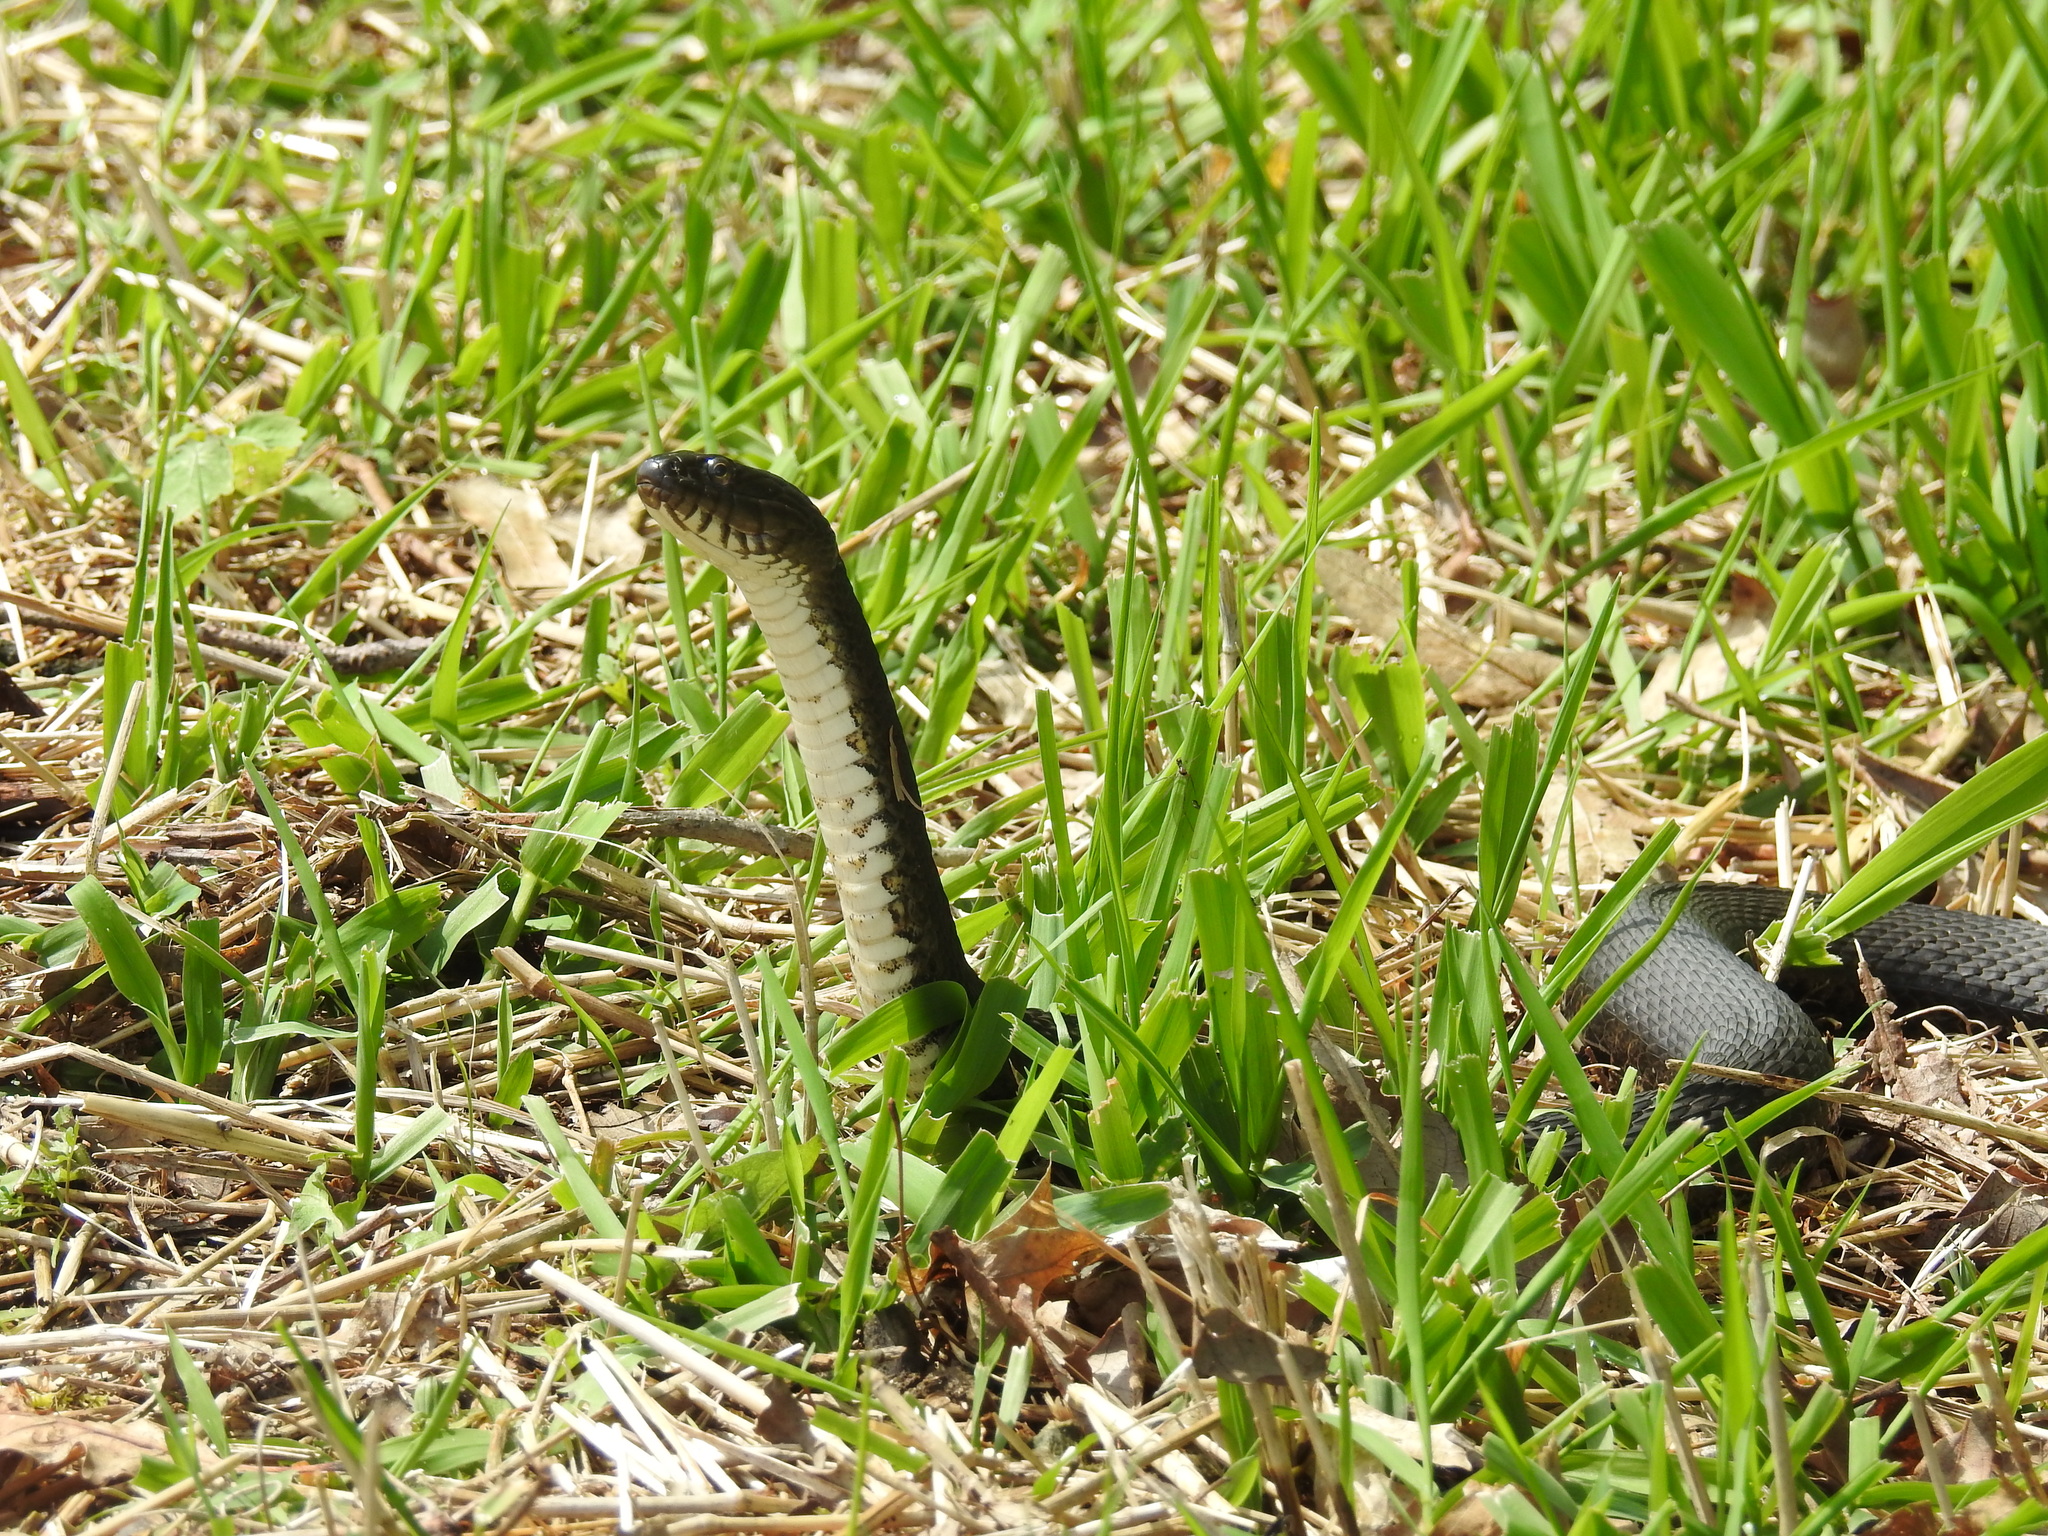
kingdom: Animalia
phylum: Chordata
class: Squamata
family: Colubridae
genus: Nerodia
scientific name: Nerodia sipedon
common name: Northern water snake
